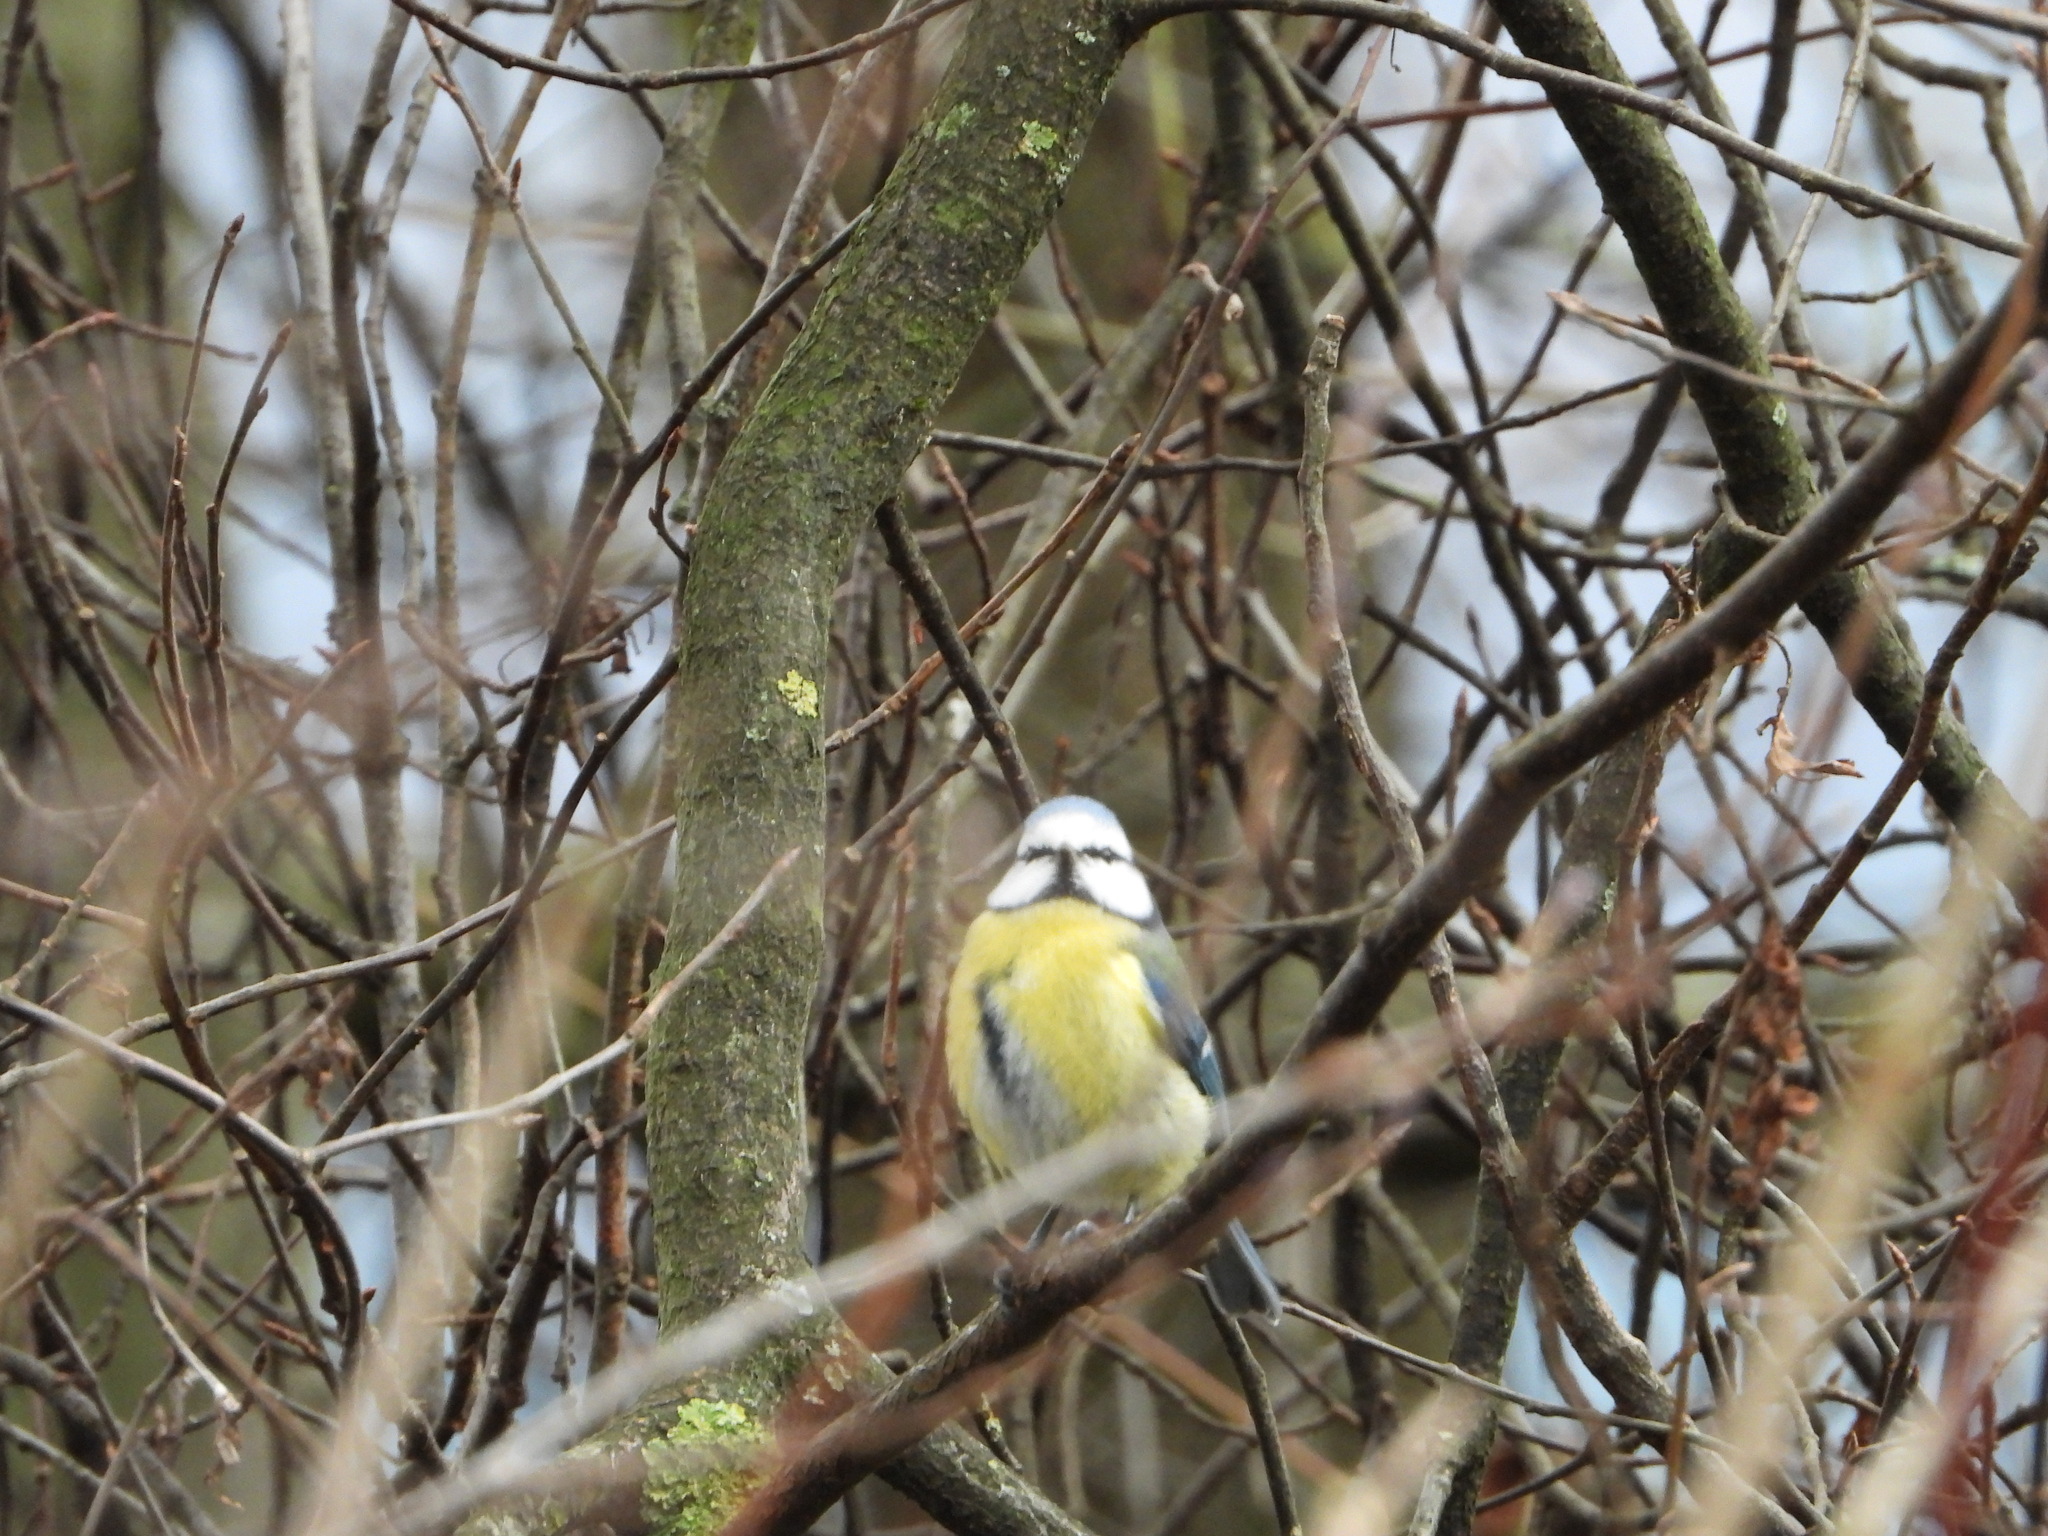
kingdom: Animalia
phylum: Chordata
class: Aves
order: Passeriformes
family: Paridae
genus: Cyanistes
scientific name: Cyanistes caeruleus
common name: Eurasian blue tit
